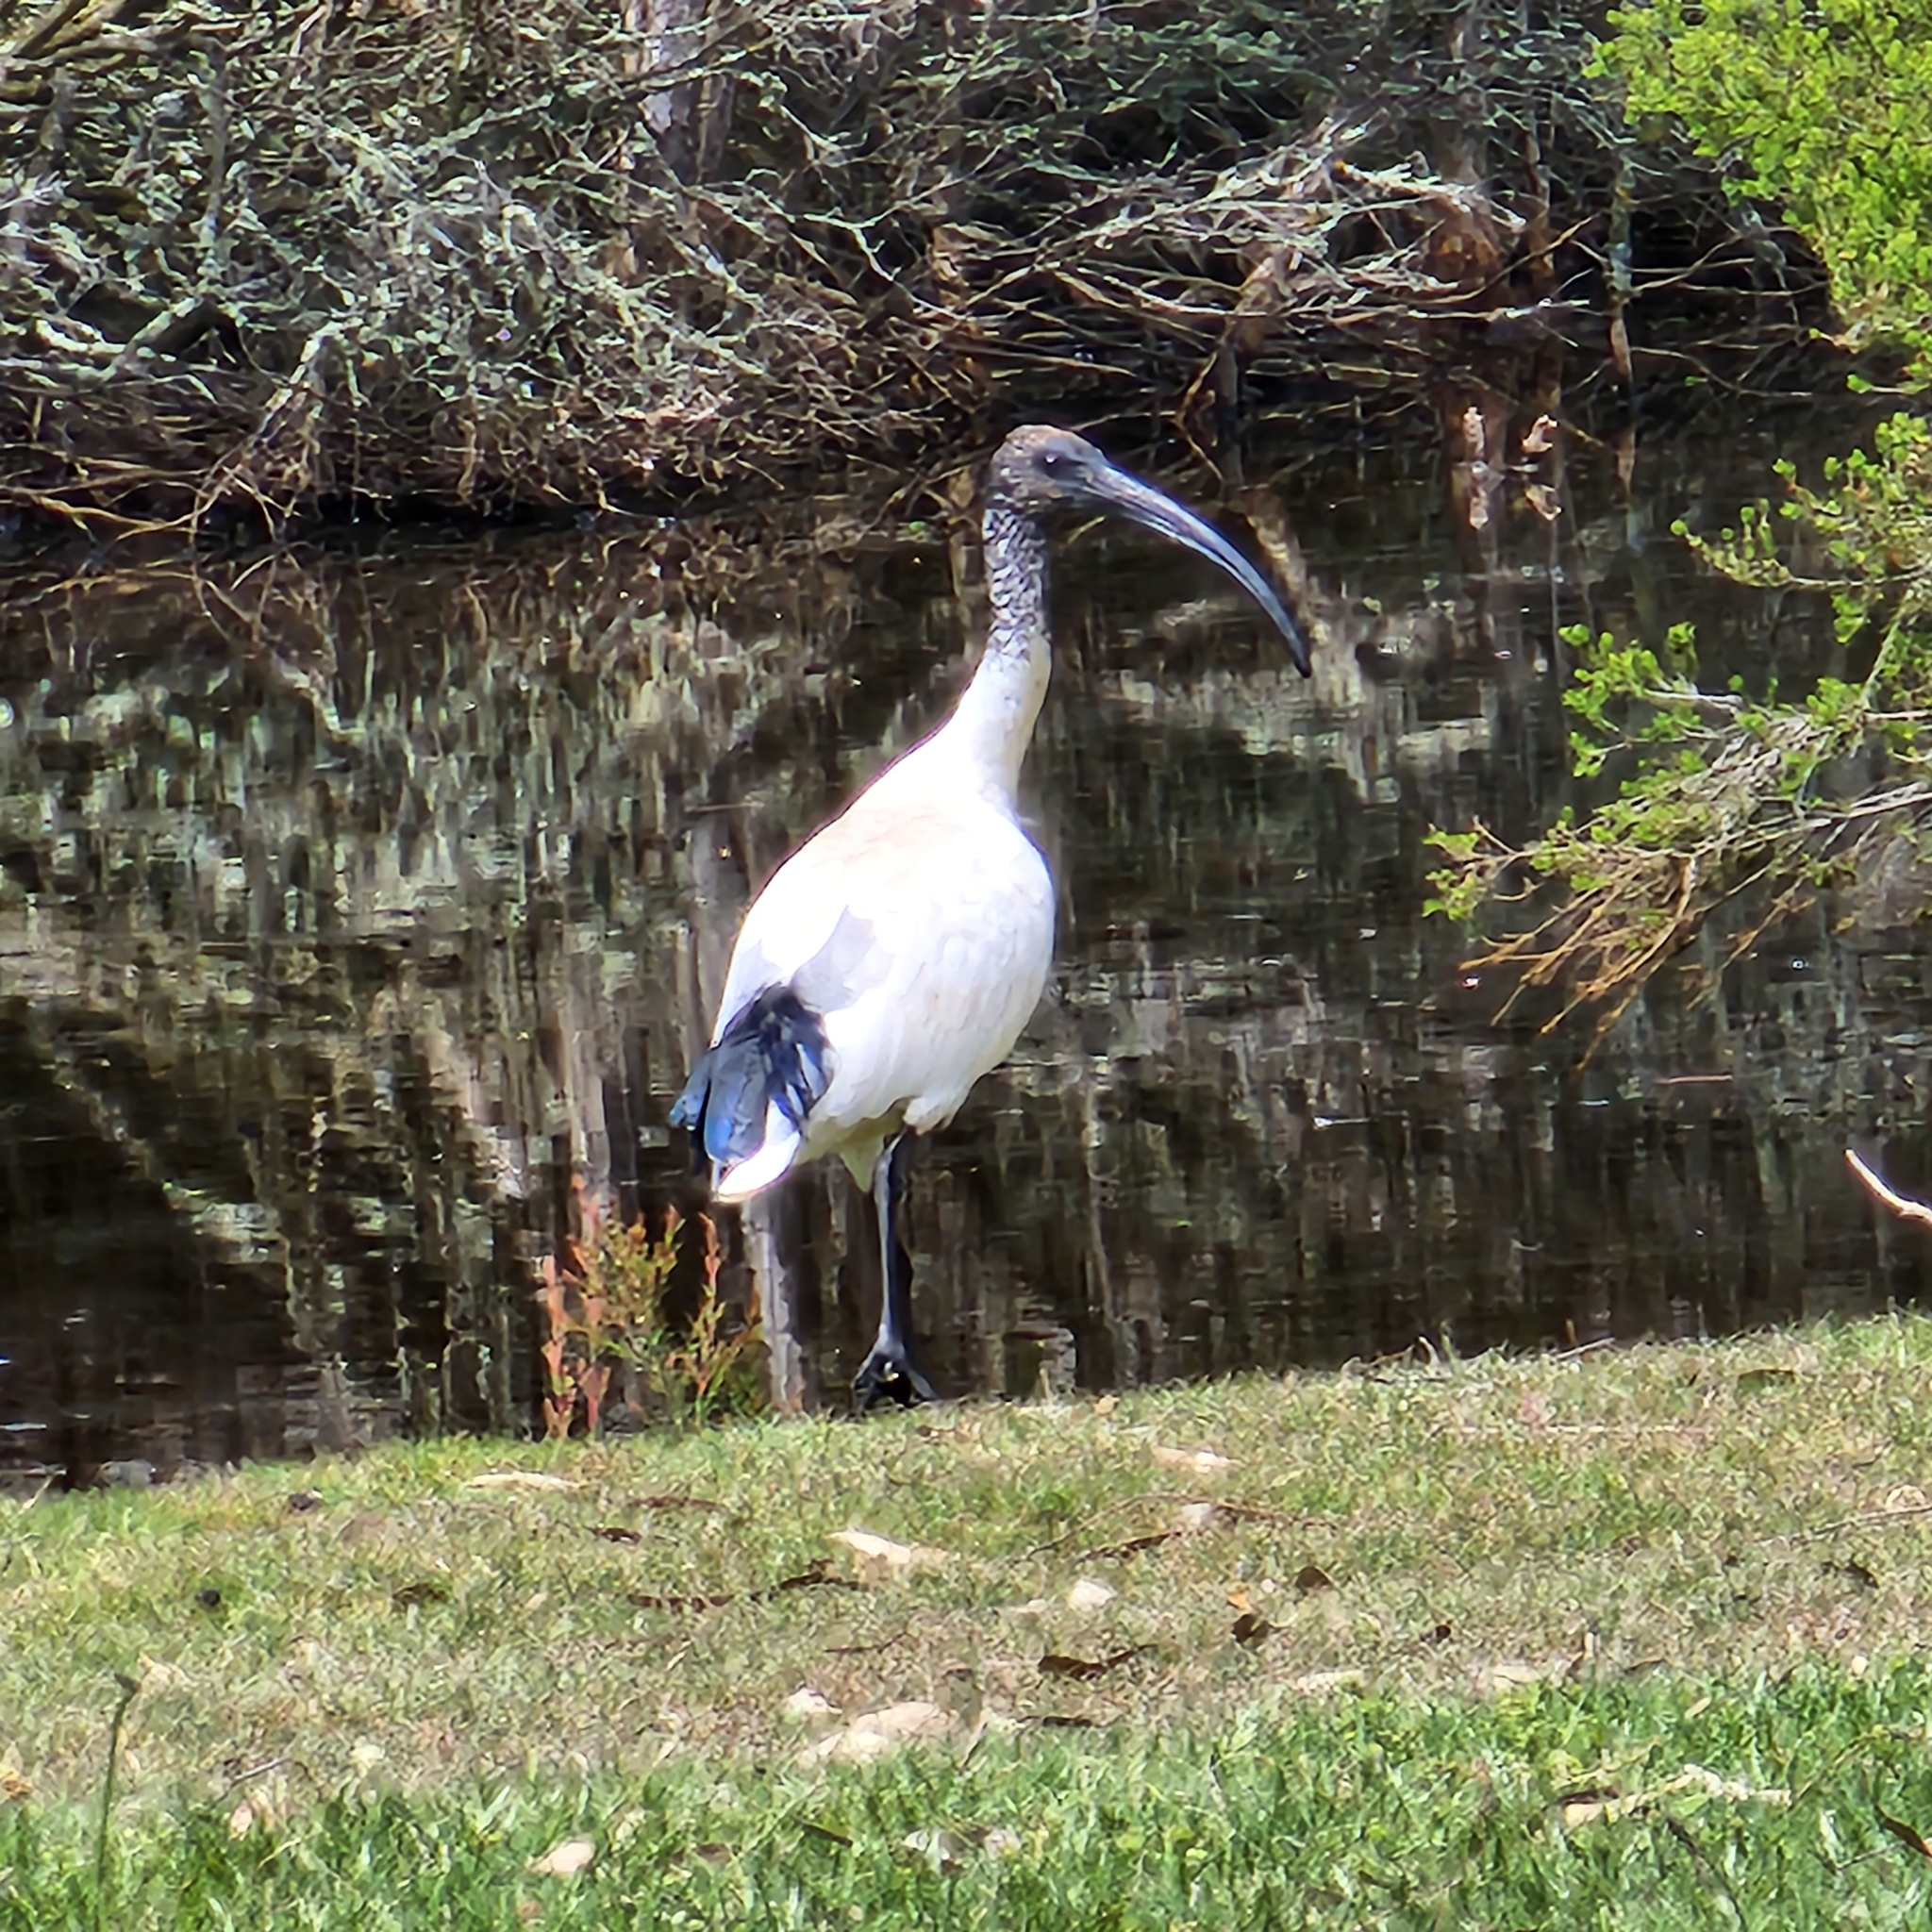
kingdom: Animalia
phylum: Chordata
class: Aves
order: Pelecaniformes
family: Threskiornithidae
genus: Threskiornis
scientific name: Threskiornis molucca
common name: Australian white ibis
